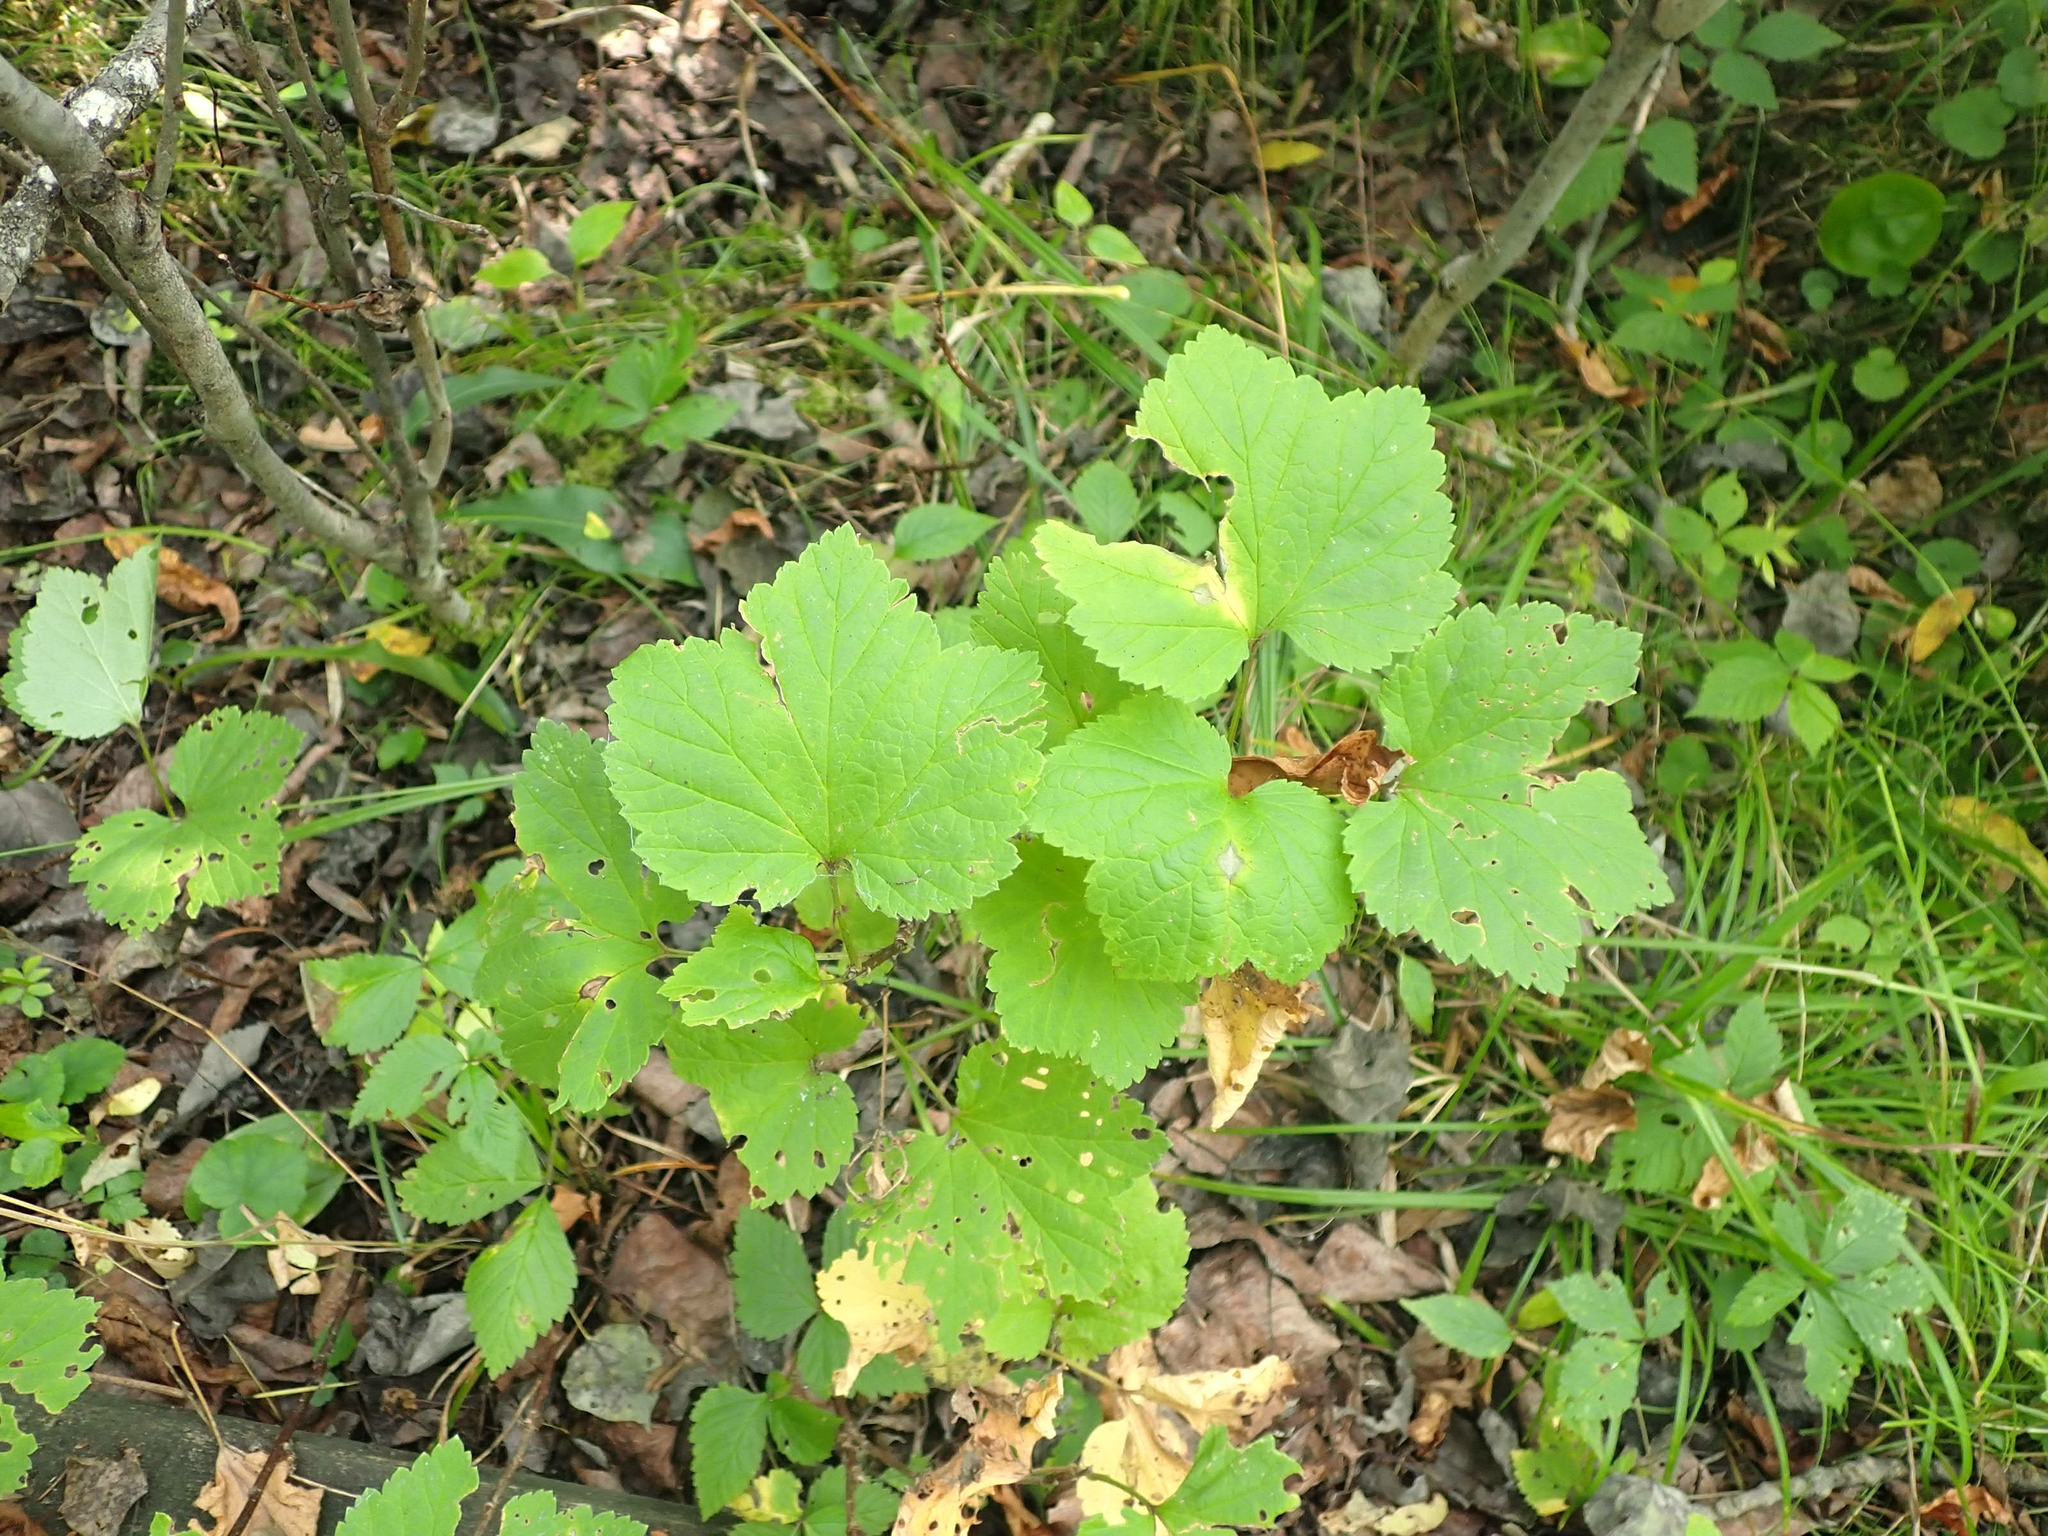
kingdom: Plantae
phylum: Tracheophyta
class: Magnoliopsida
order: Saxifragales
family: Grossulariaceae
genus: Ribes
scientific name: Ribes triste
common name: Swamp red currant
